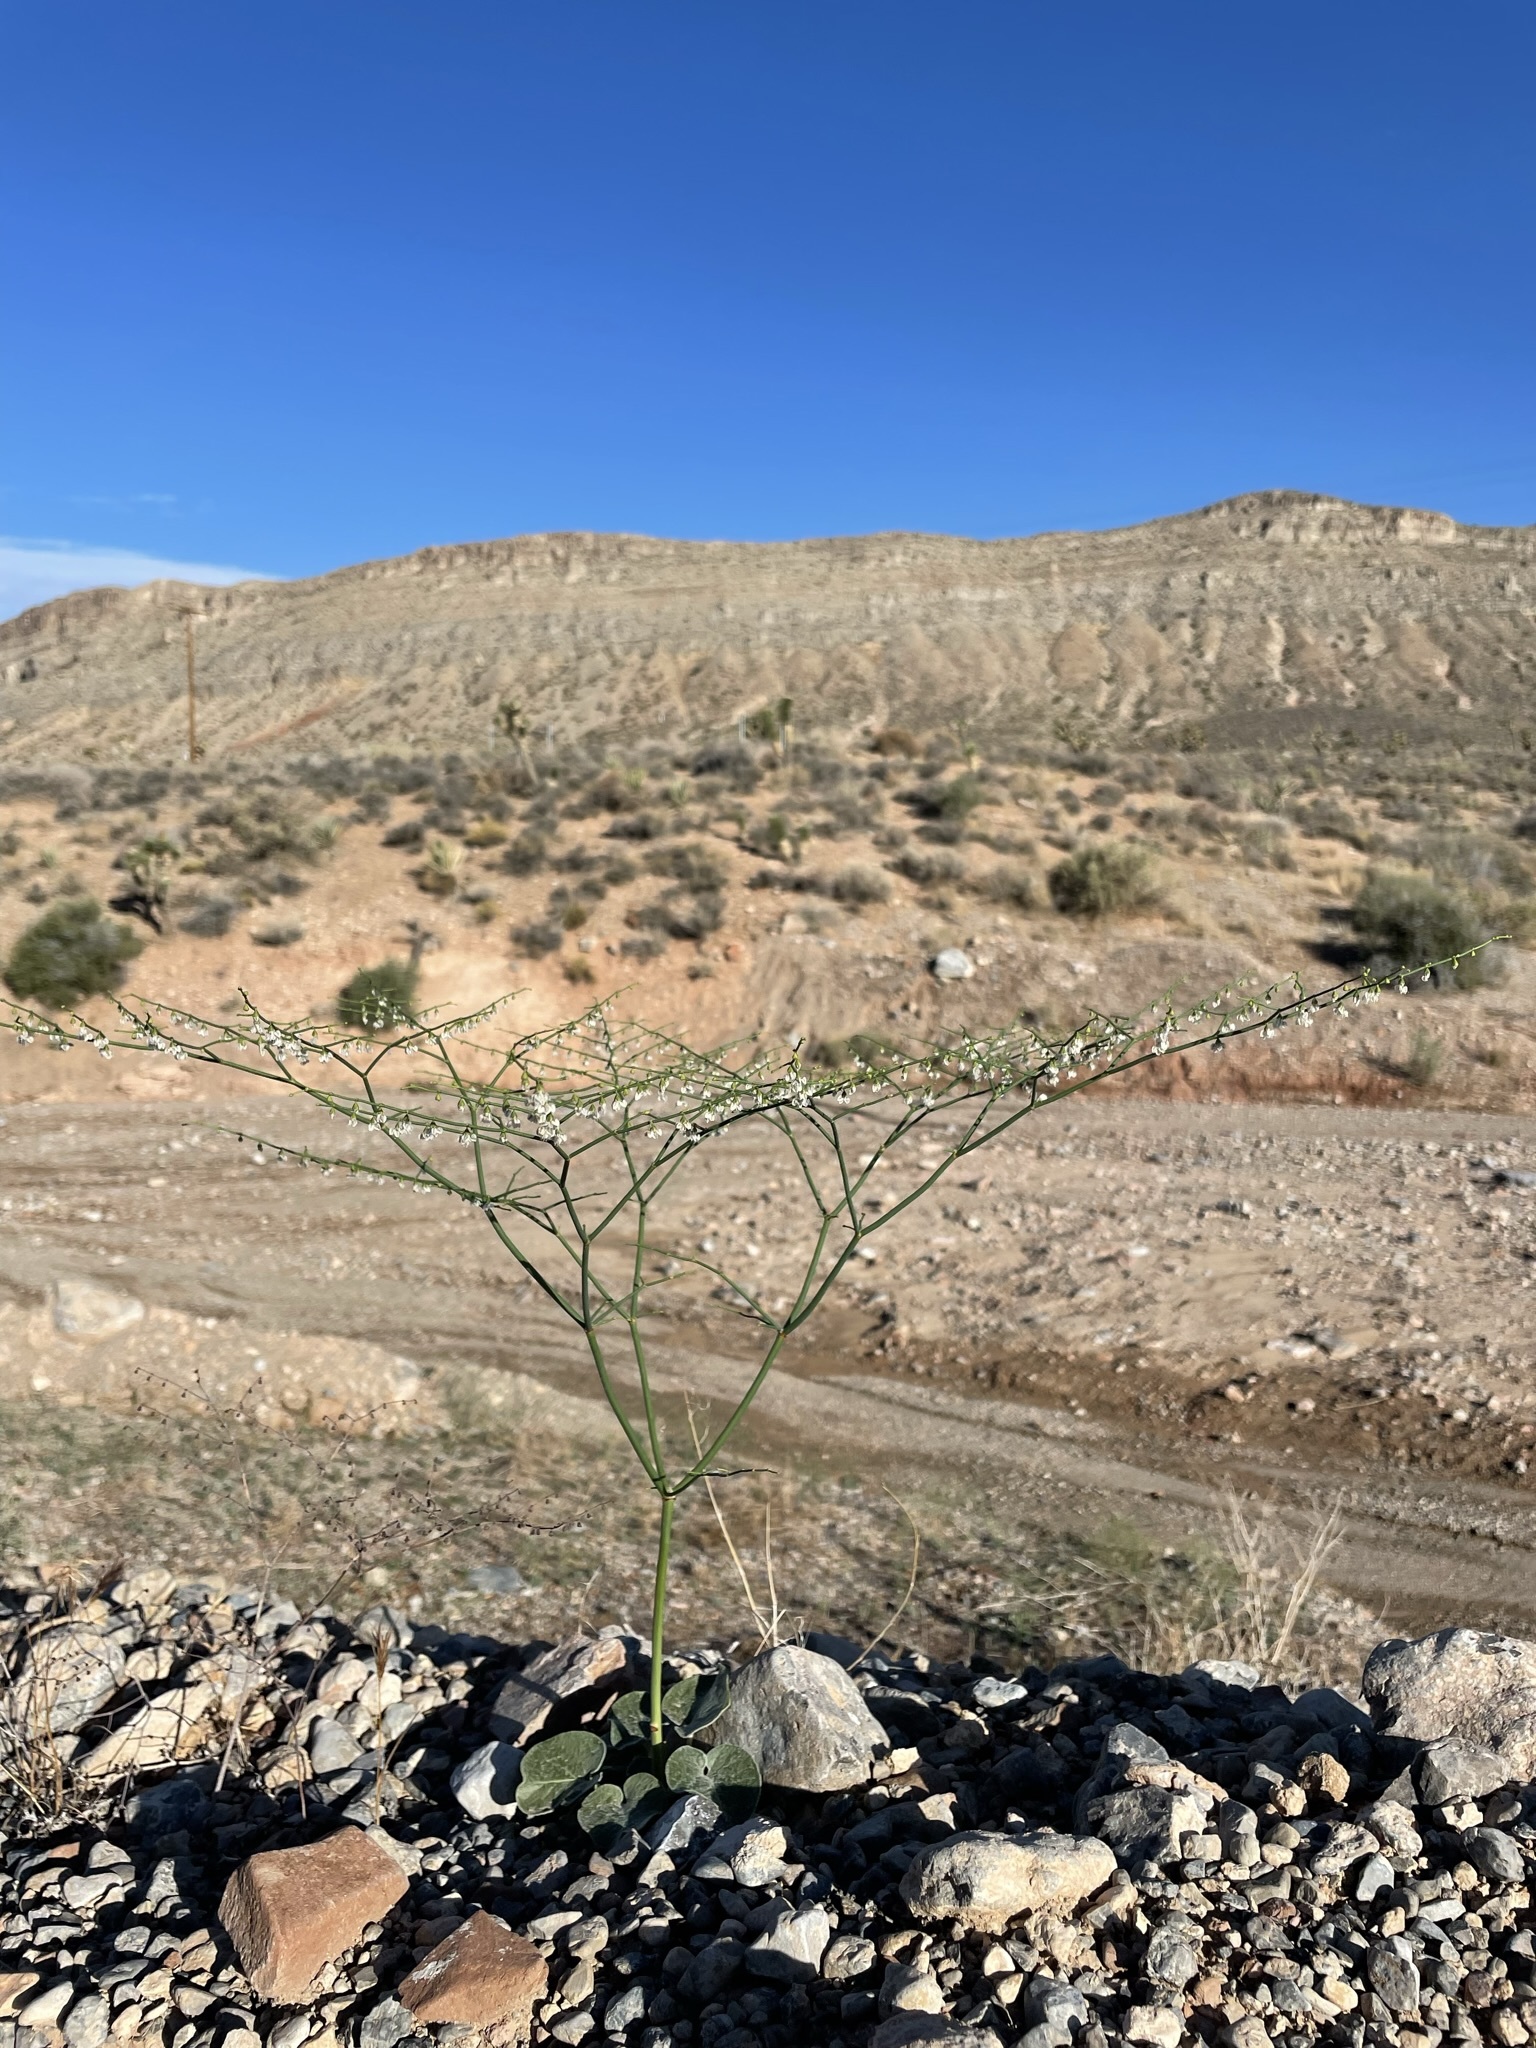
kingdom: Plantae
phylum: Tracheophyta
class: Magnoliopsida
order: Caryophyllales
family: Polygonaceae
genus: Eriogonum
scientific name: Eriogonum deflexum
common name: Skeleton-weed
